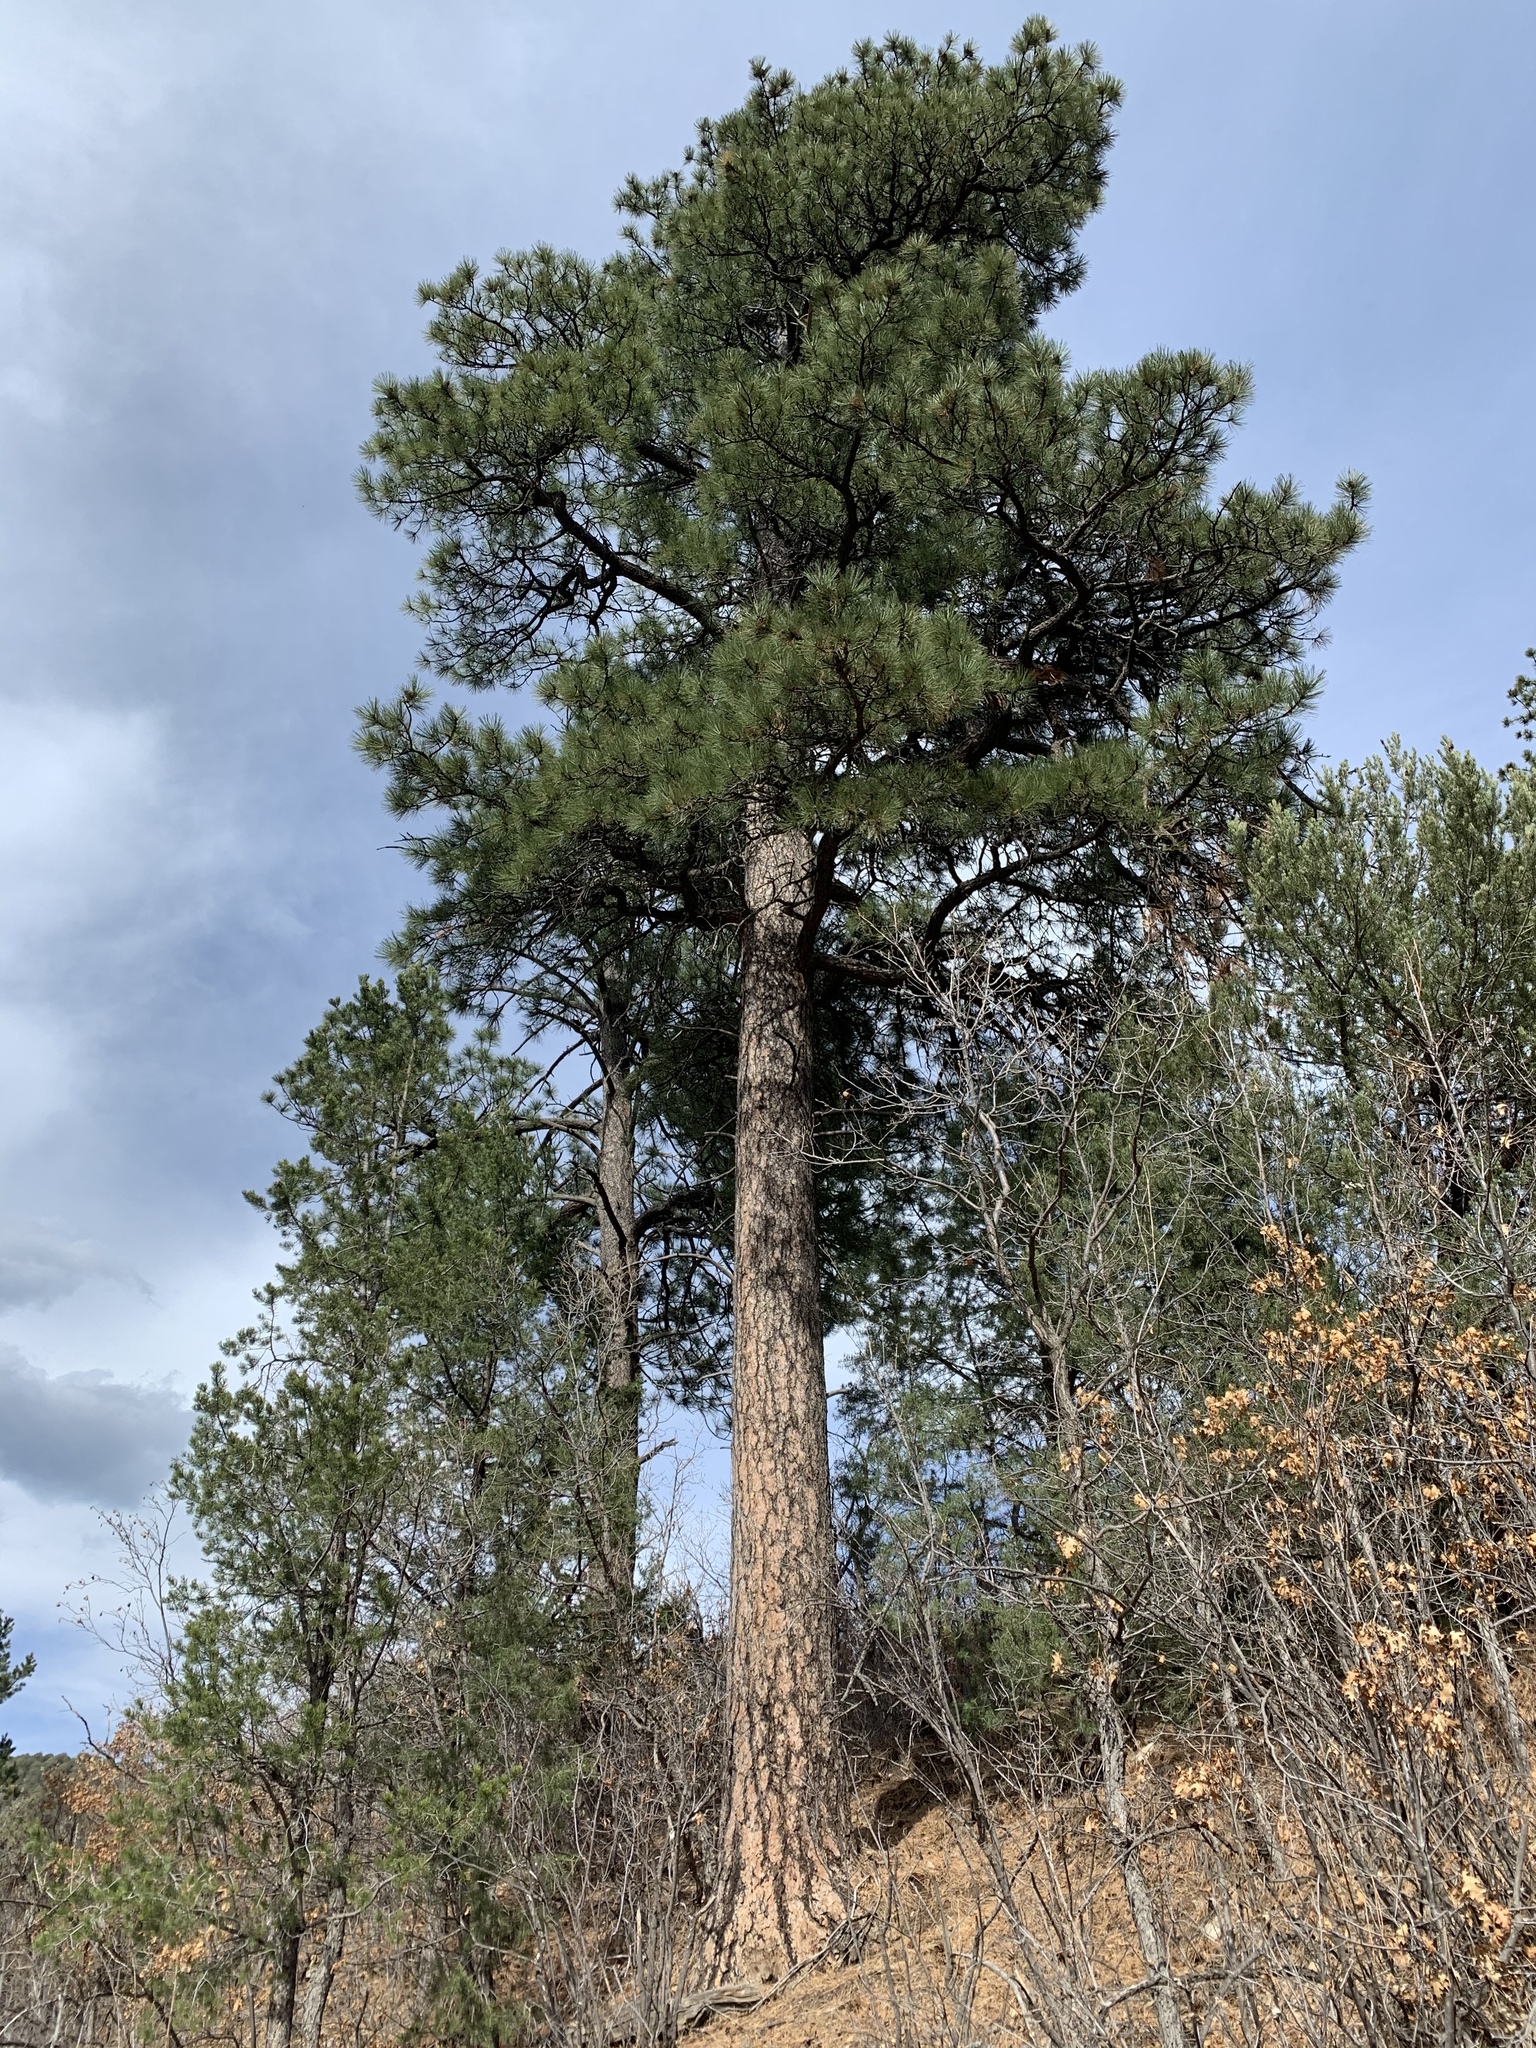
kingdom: Plantae
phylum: Tracheophyta
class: Pinopsida
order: Pinales
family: Pinaceae
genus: Pinus
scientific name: Pinus ponderosa
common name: Western yellow-pine
